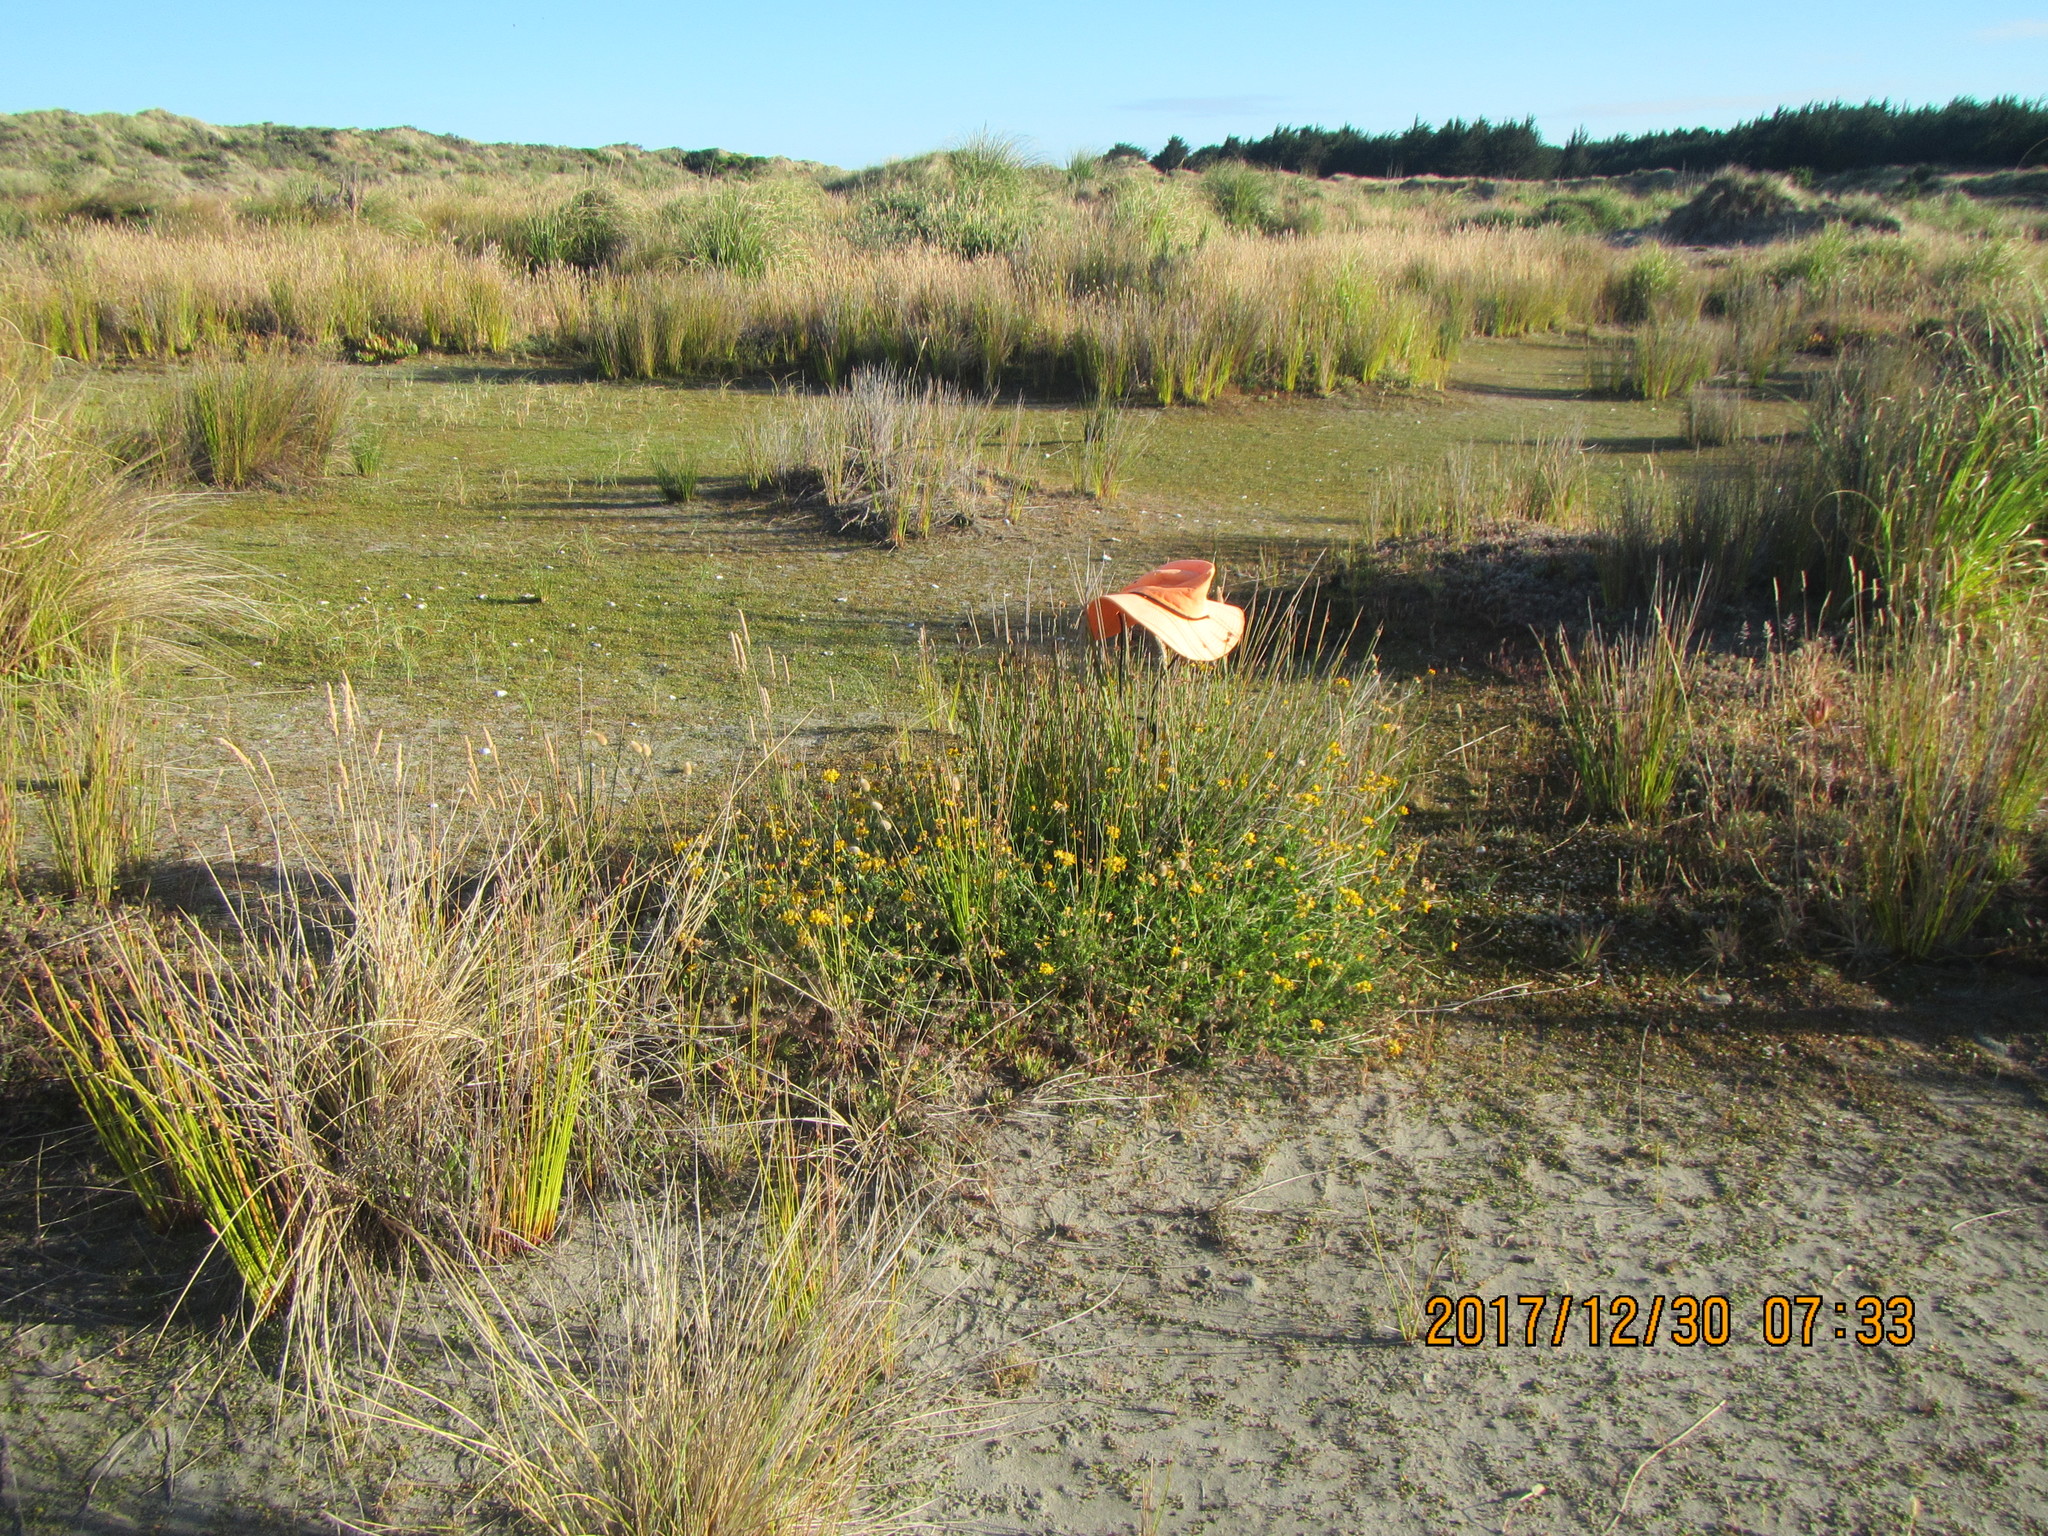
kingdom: Plantae
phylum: Tracheophyta
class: Magnoliopsida
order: Fabales
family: Fabaceae
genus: Lotus
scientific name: Lotus angustissimus
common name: Slender bird's-foot trefoil
